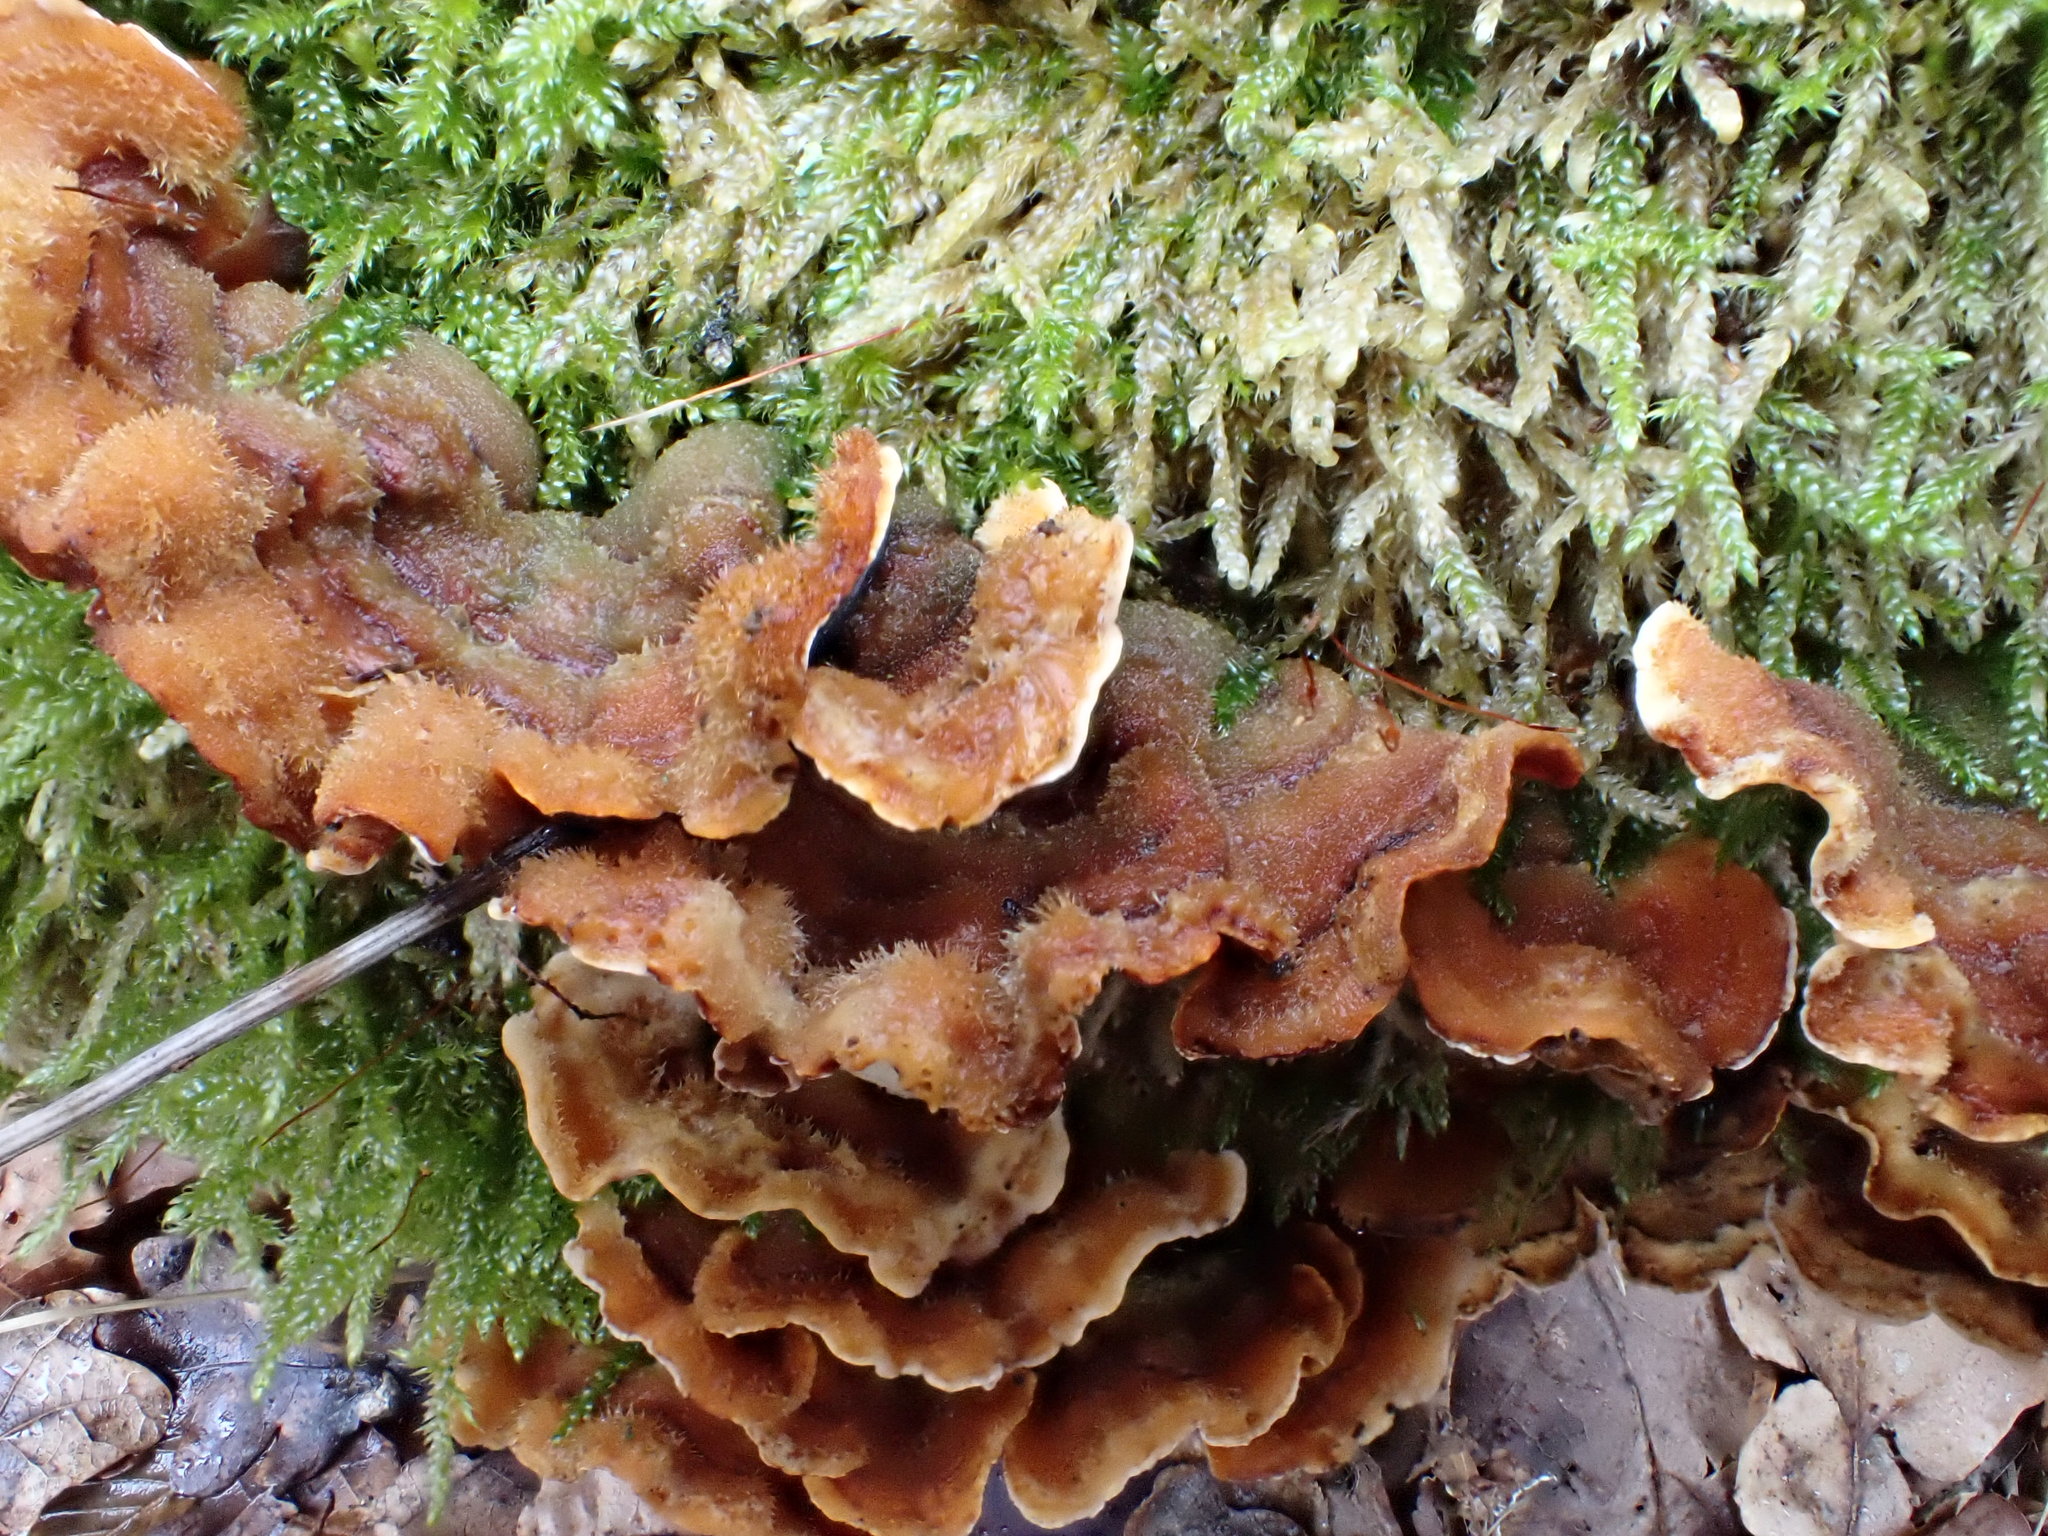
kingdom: Fungi
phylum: Basidiomycota
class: Agaricomycetes
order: Russulales
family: Stereaceae
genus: Stereum
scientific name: Stereum hirsutum
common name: Hairy curtain crust
